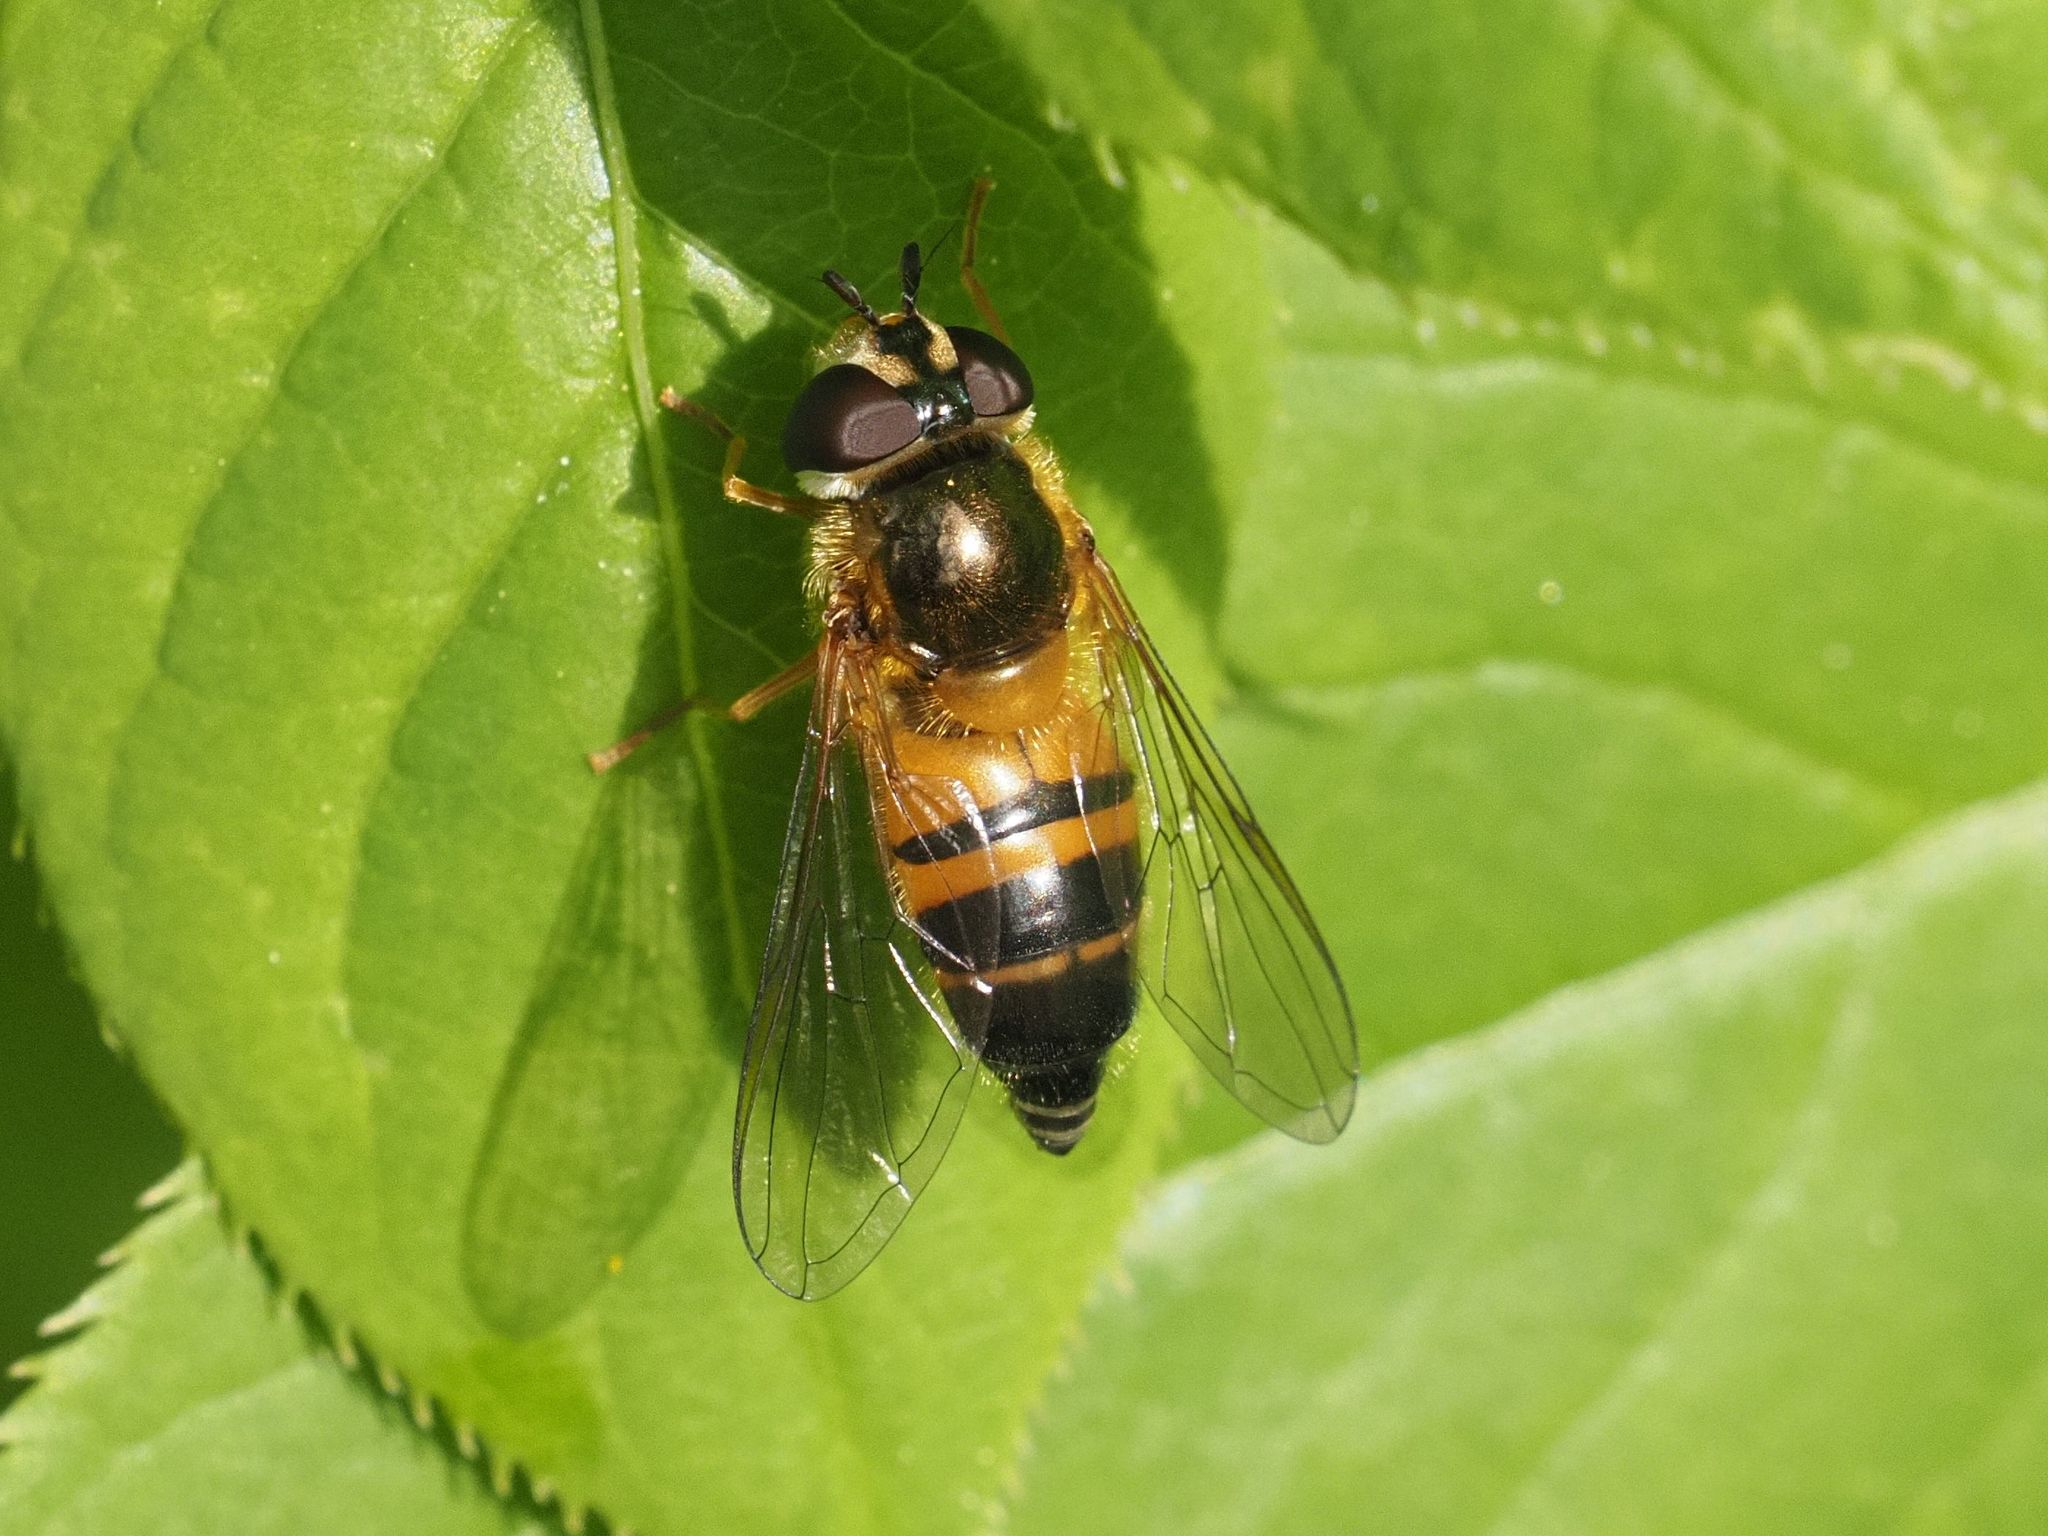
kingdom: Animalia
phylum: Arthropoda
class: Insecta
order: Diptera
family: Syrphidae
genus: Epistrophe
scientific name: Epistrophe eligans
